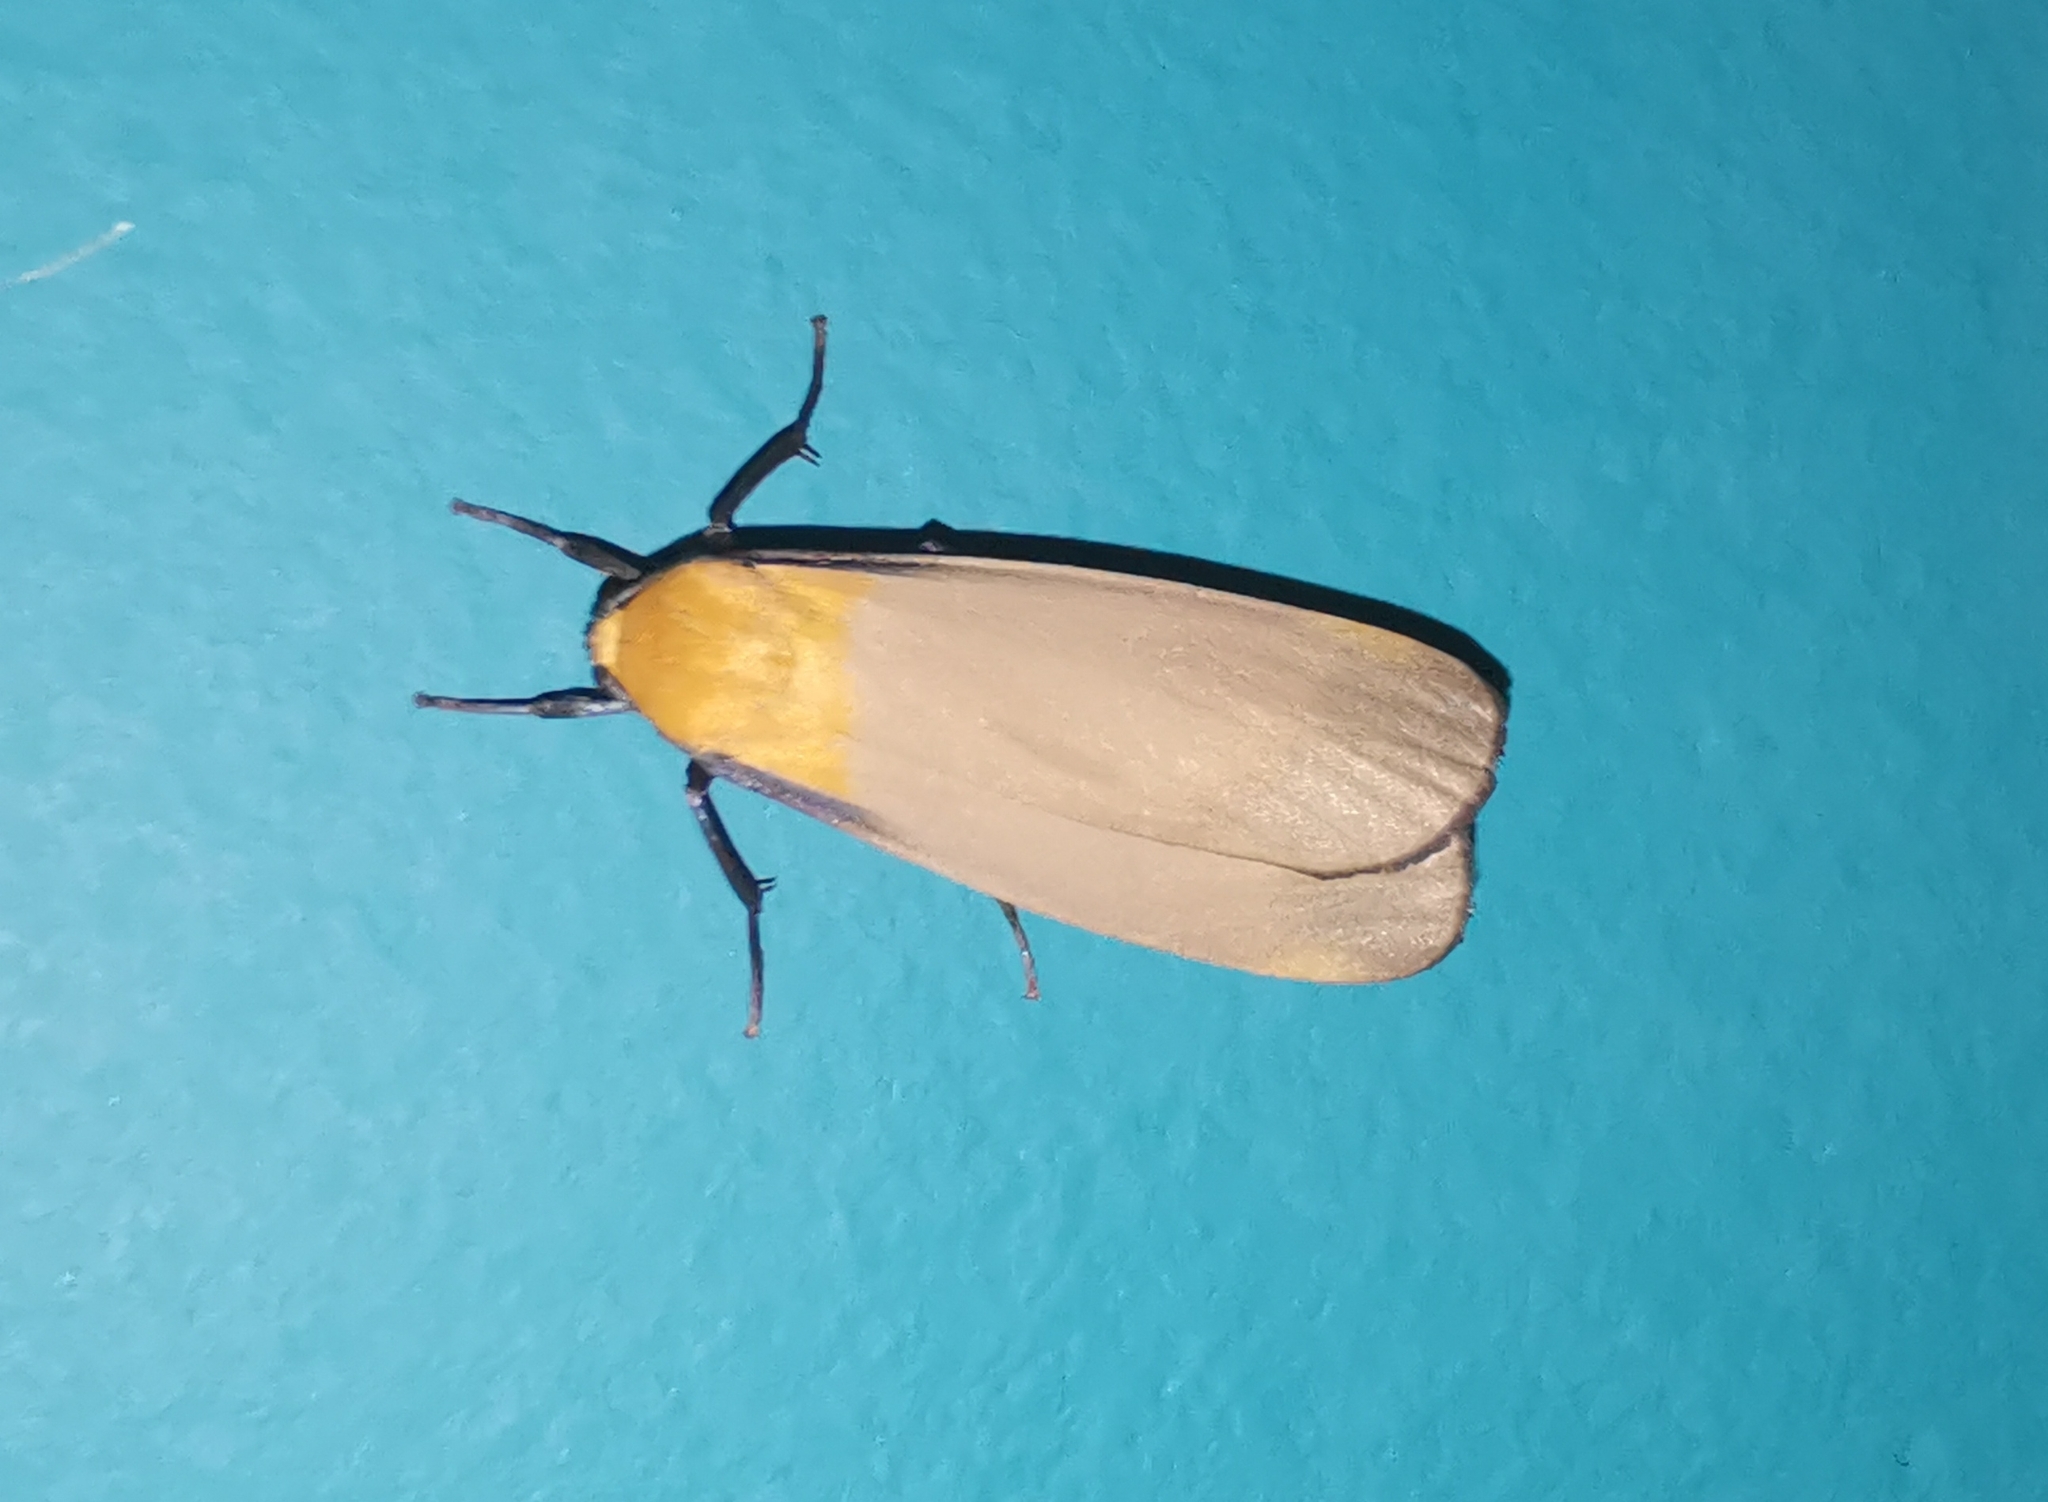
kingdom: Animalia
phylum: Arthropoda
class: Insecta
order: Lepidoptera
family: Erebidae
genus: Lithosia
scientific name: Lithosia quadra
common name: Four-spotted footman
